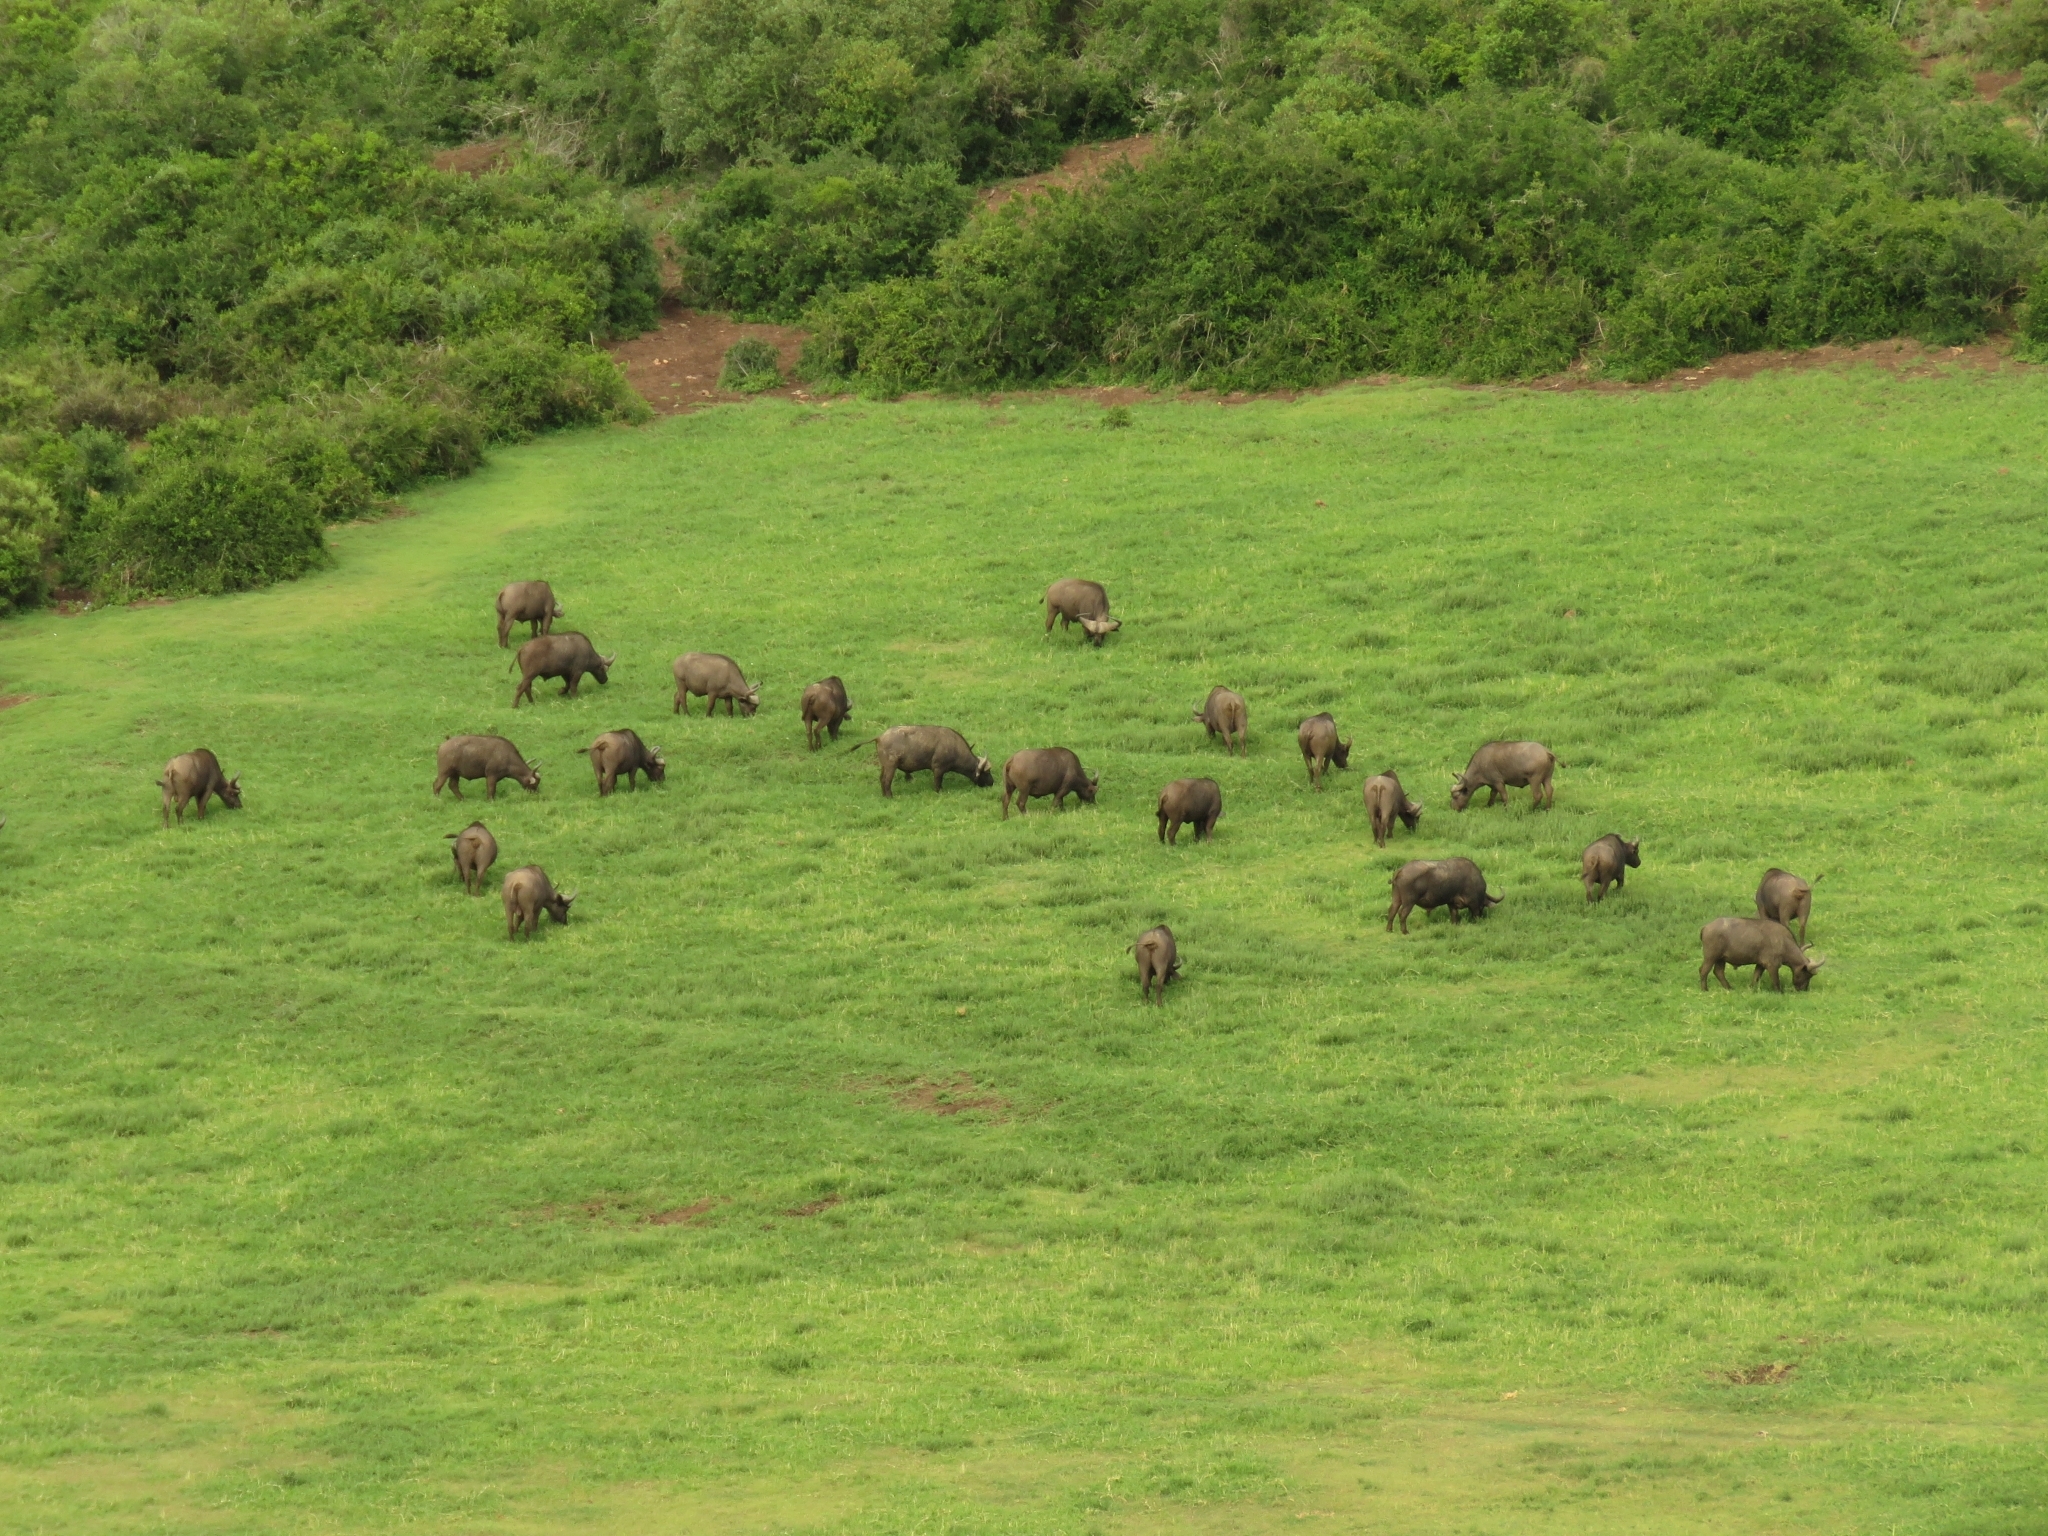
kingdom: Animalia
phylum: Chordata
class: Mammalia
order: Artiodactyla
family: Bovidae
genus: Syncerus
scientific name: Syncerus caffer
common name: African buffalo
